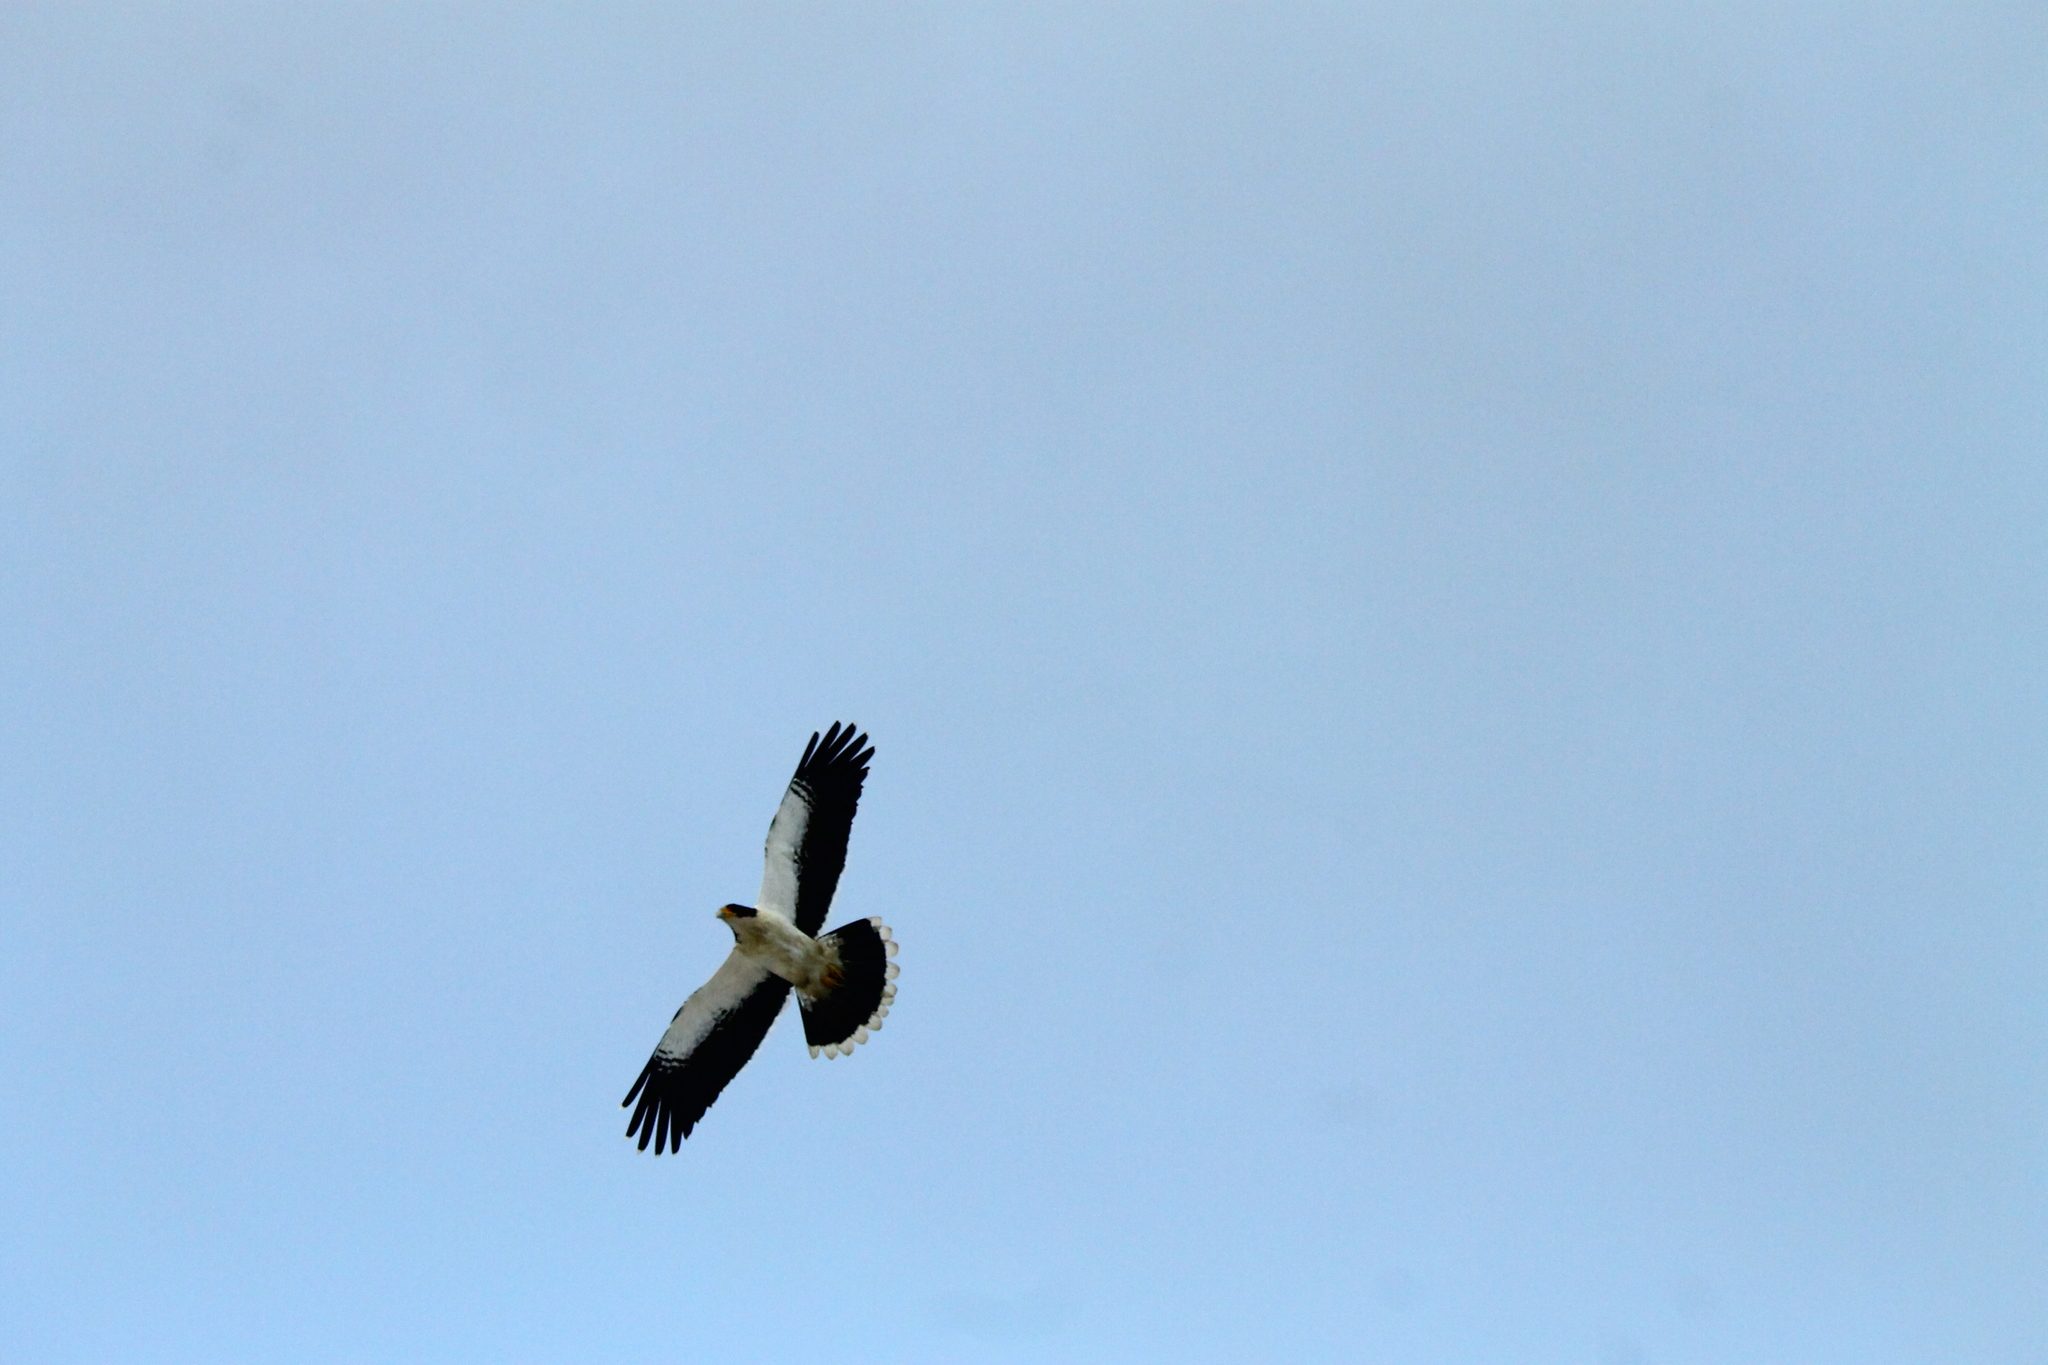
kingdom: Animalia
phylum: Chordata
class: Aves
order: Falconiformes
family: Falconidae
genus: Daptrius
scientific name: Daptrius
